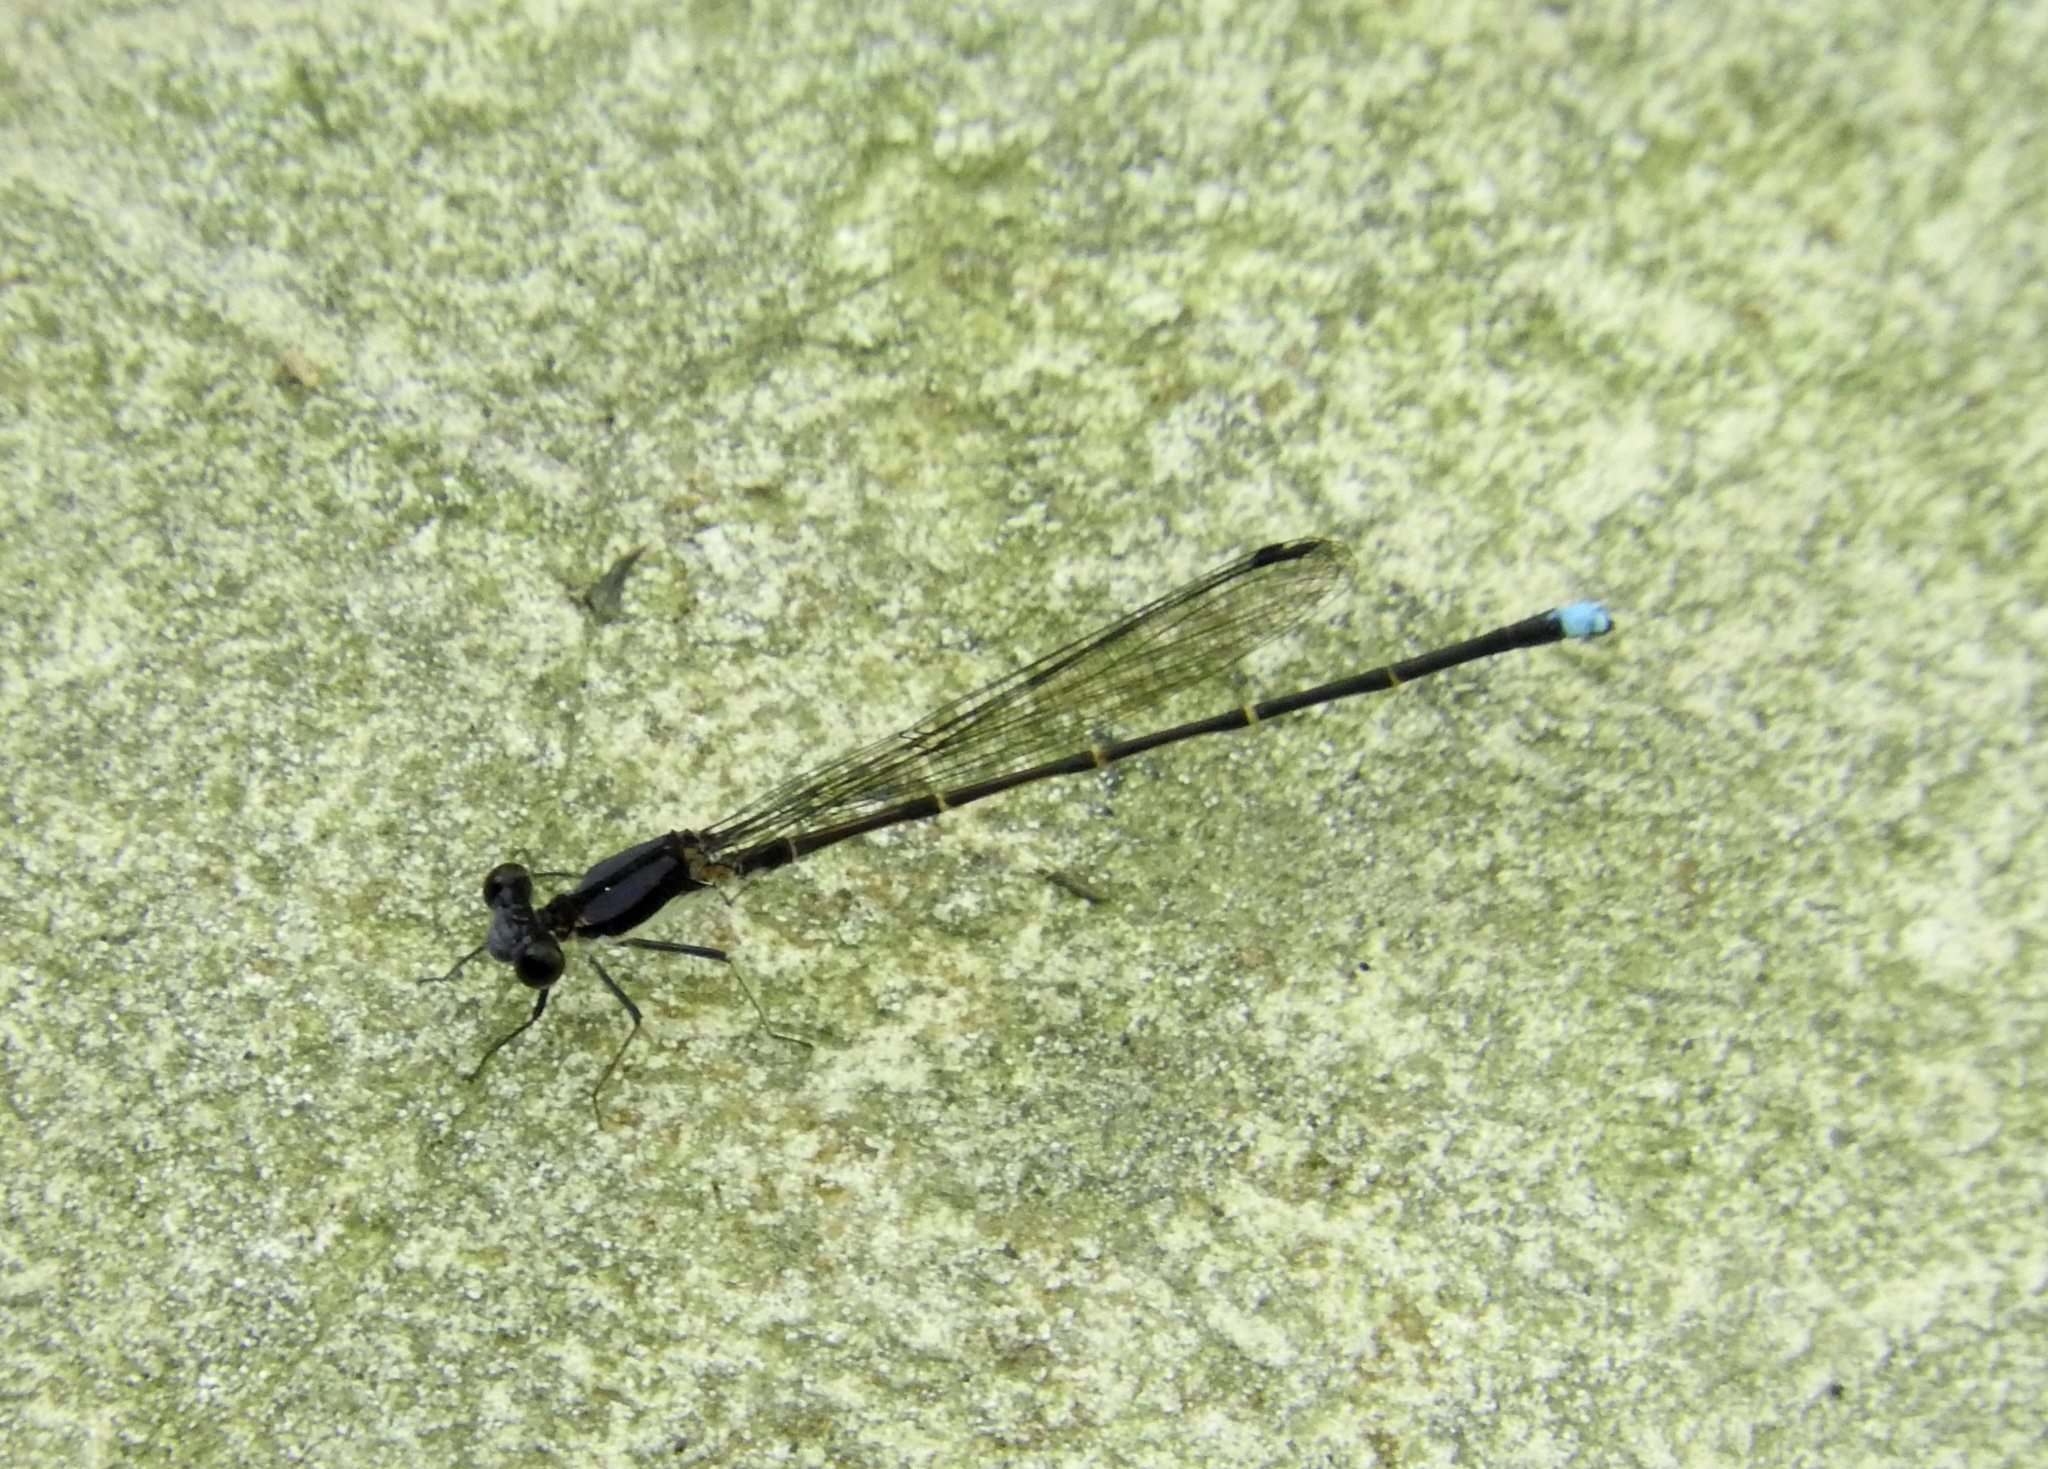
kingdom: Animalia
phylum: Arthropoda
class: Insecta
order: Odonata
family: Coenagrionidae
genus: Argia
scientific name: Argia tibialis
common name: Blue-tipped dancer
